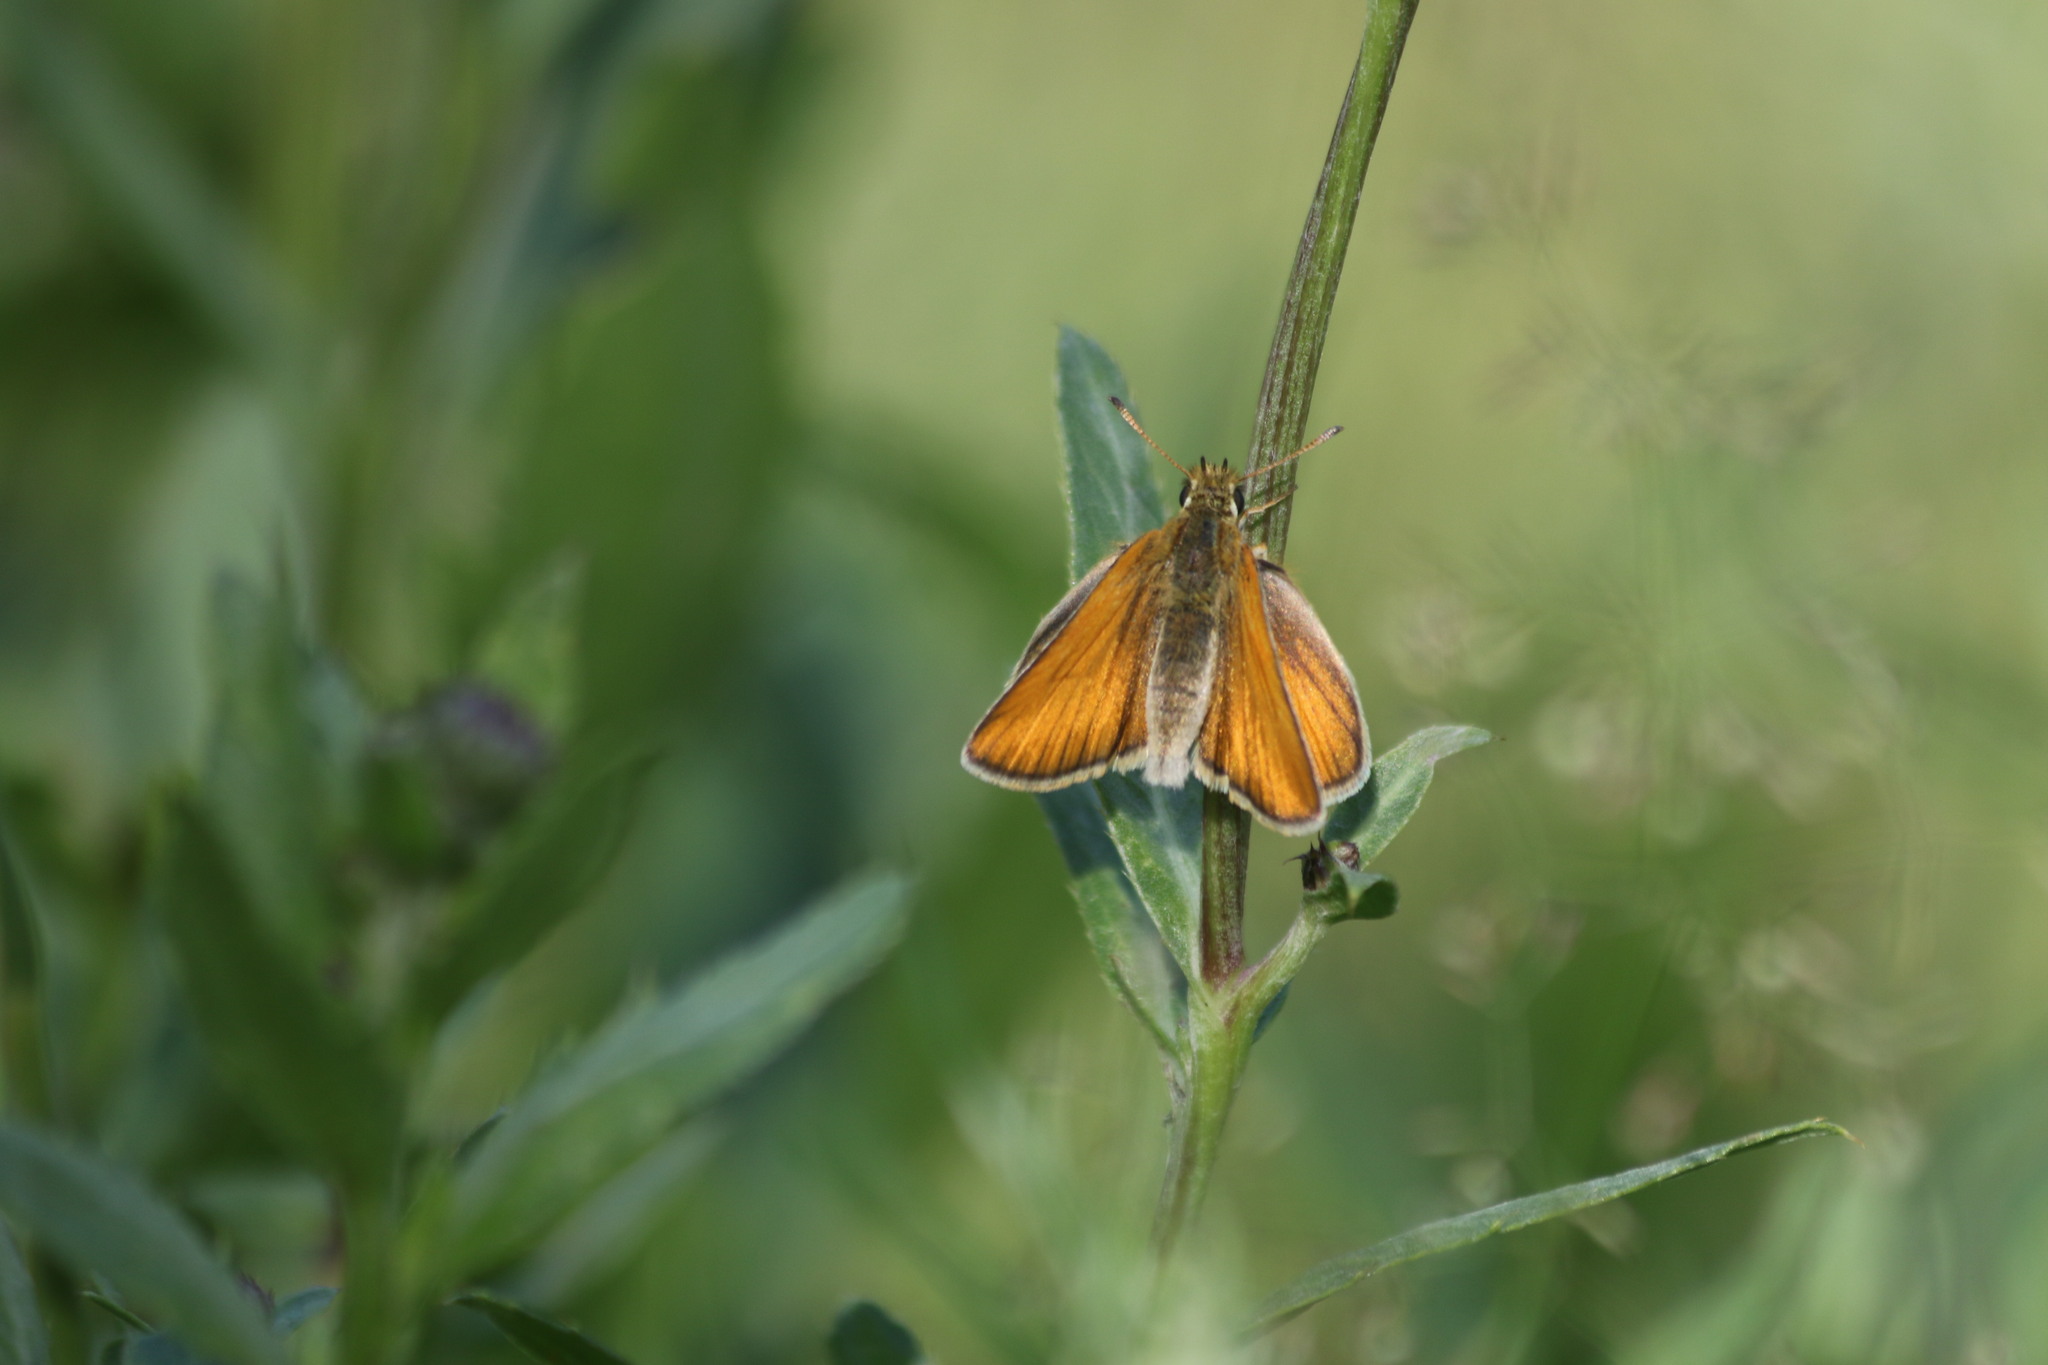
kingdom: Animalia
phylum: Arthropoda
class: Insecta
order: Lepidoptera
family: Hesperiidae
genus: Thymelicus
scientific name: Thymelicus lineola
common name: Essex skipper
